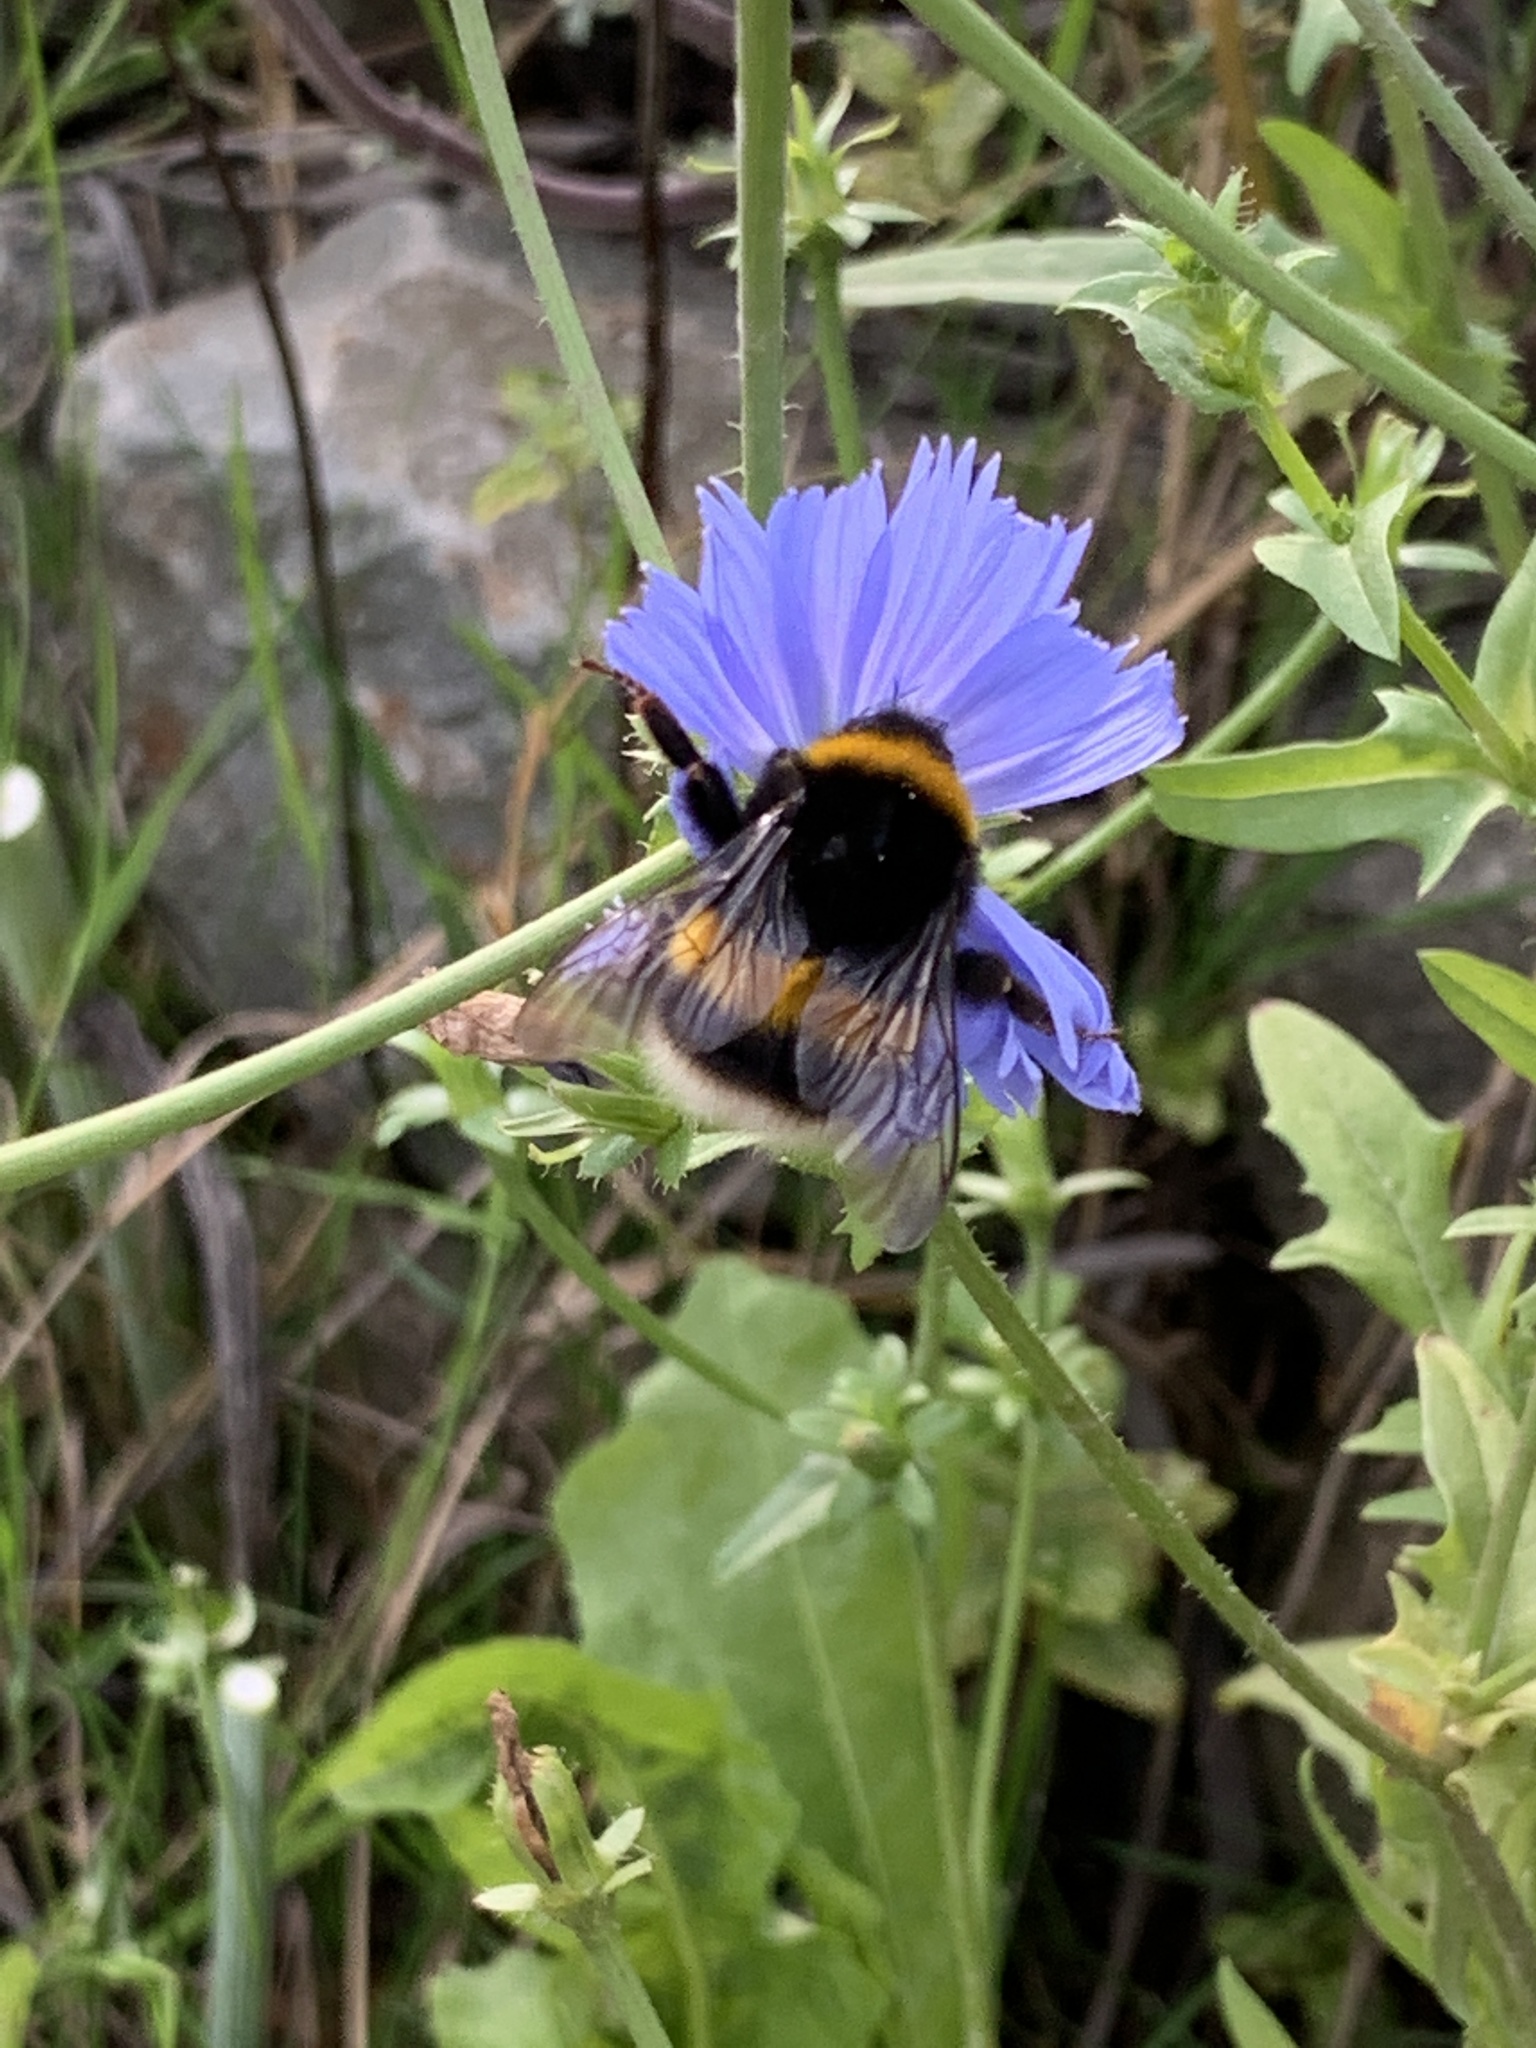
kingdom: Animalia
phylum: Arthropoda
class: Insecta
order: Hymenoptera
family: Apidae
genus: Bombus
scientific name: Bombus terrestris
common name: Buff-tailed bumblebee
